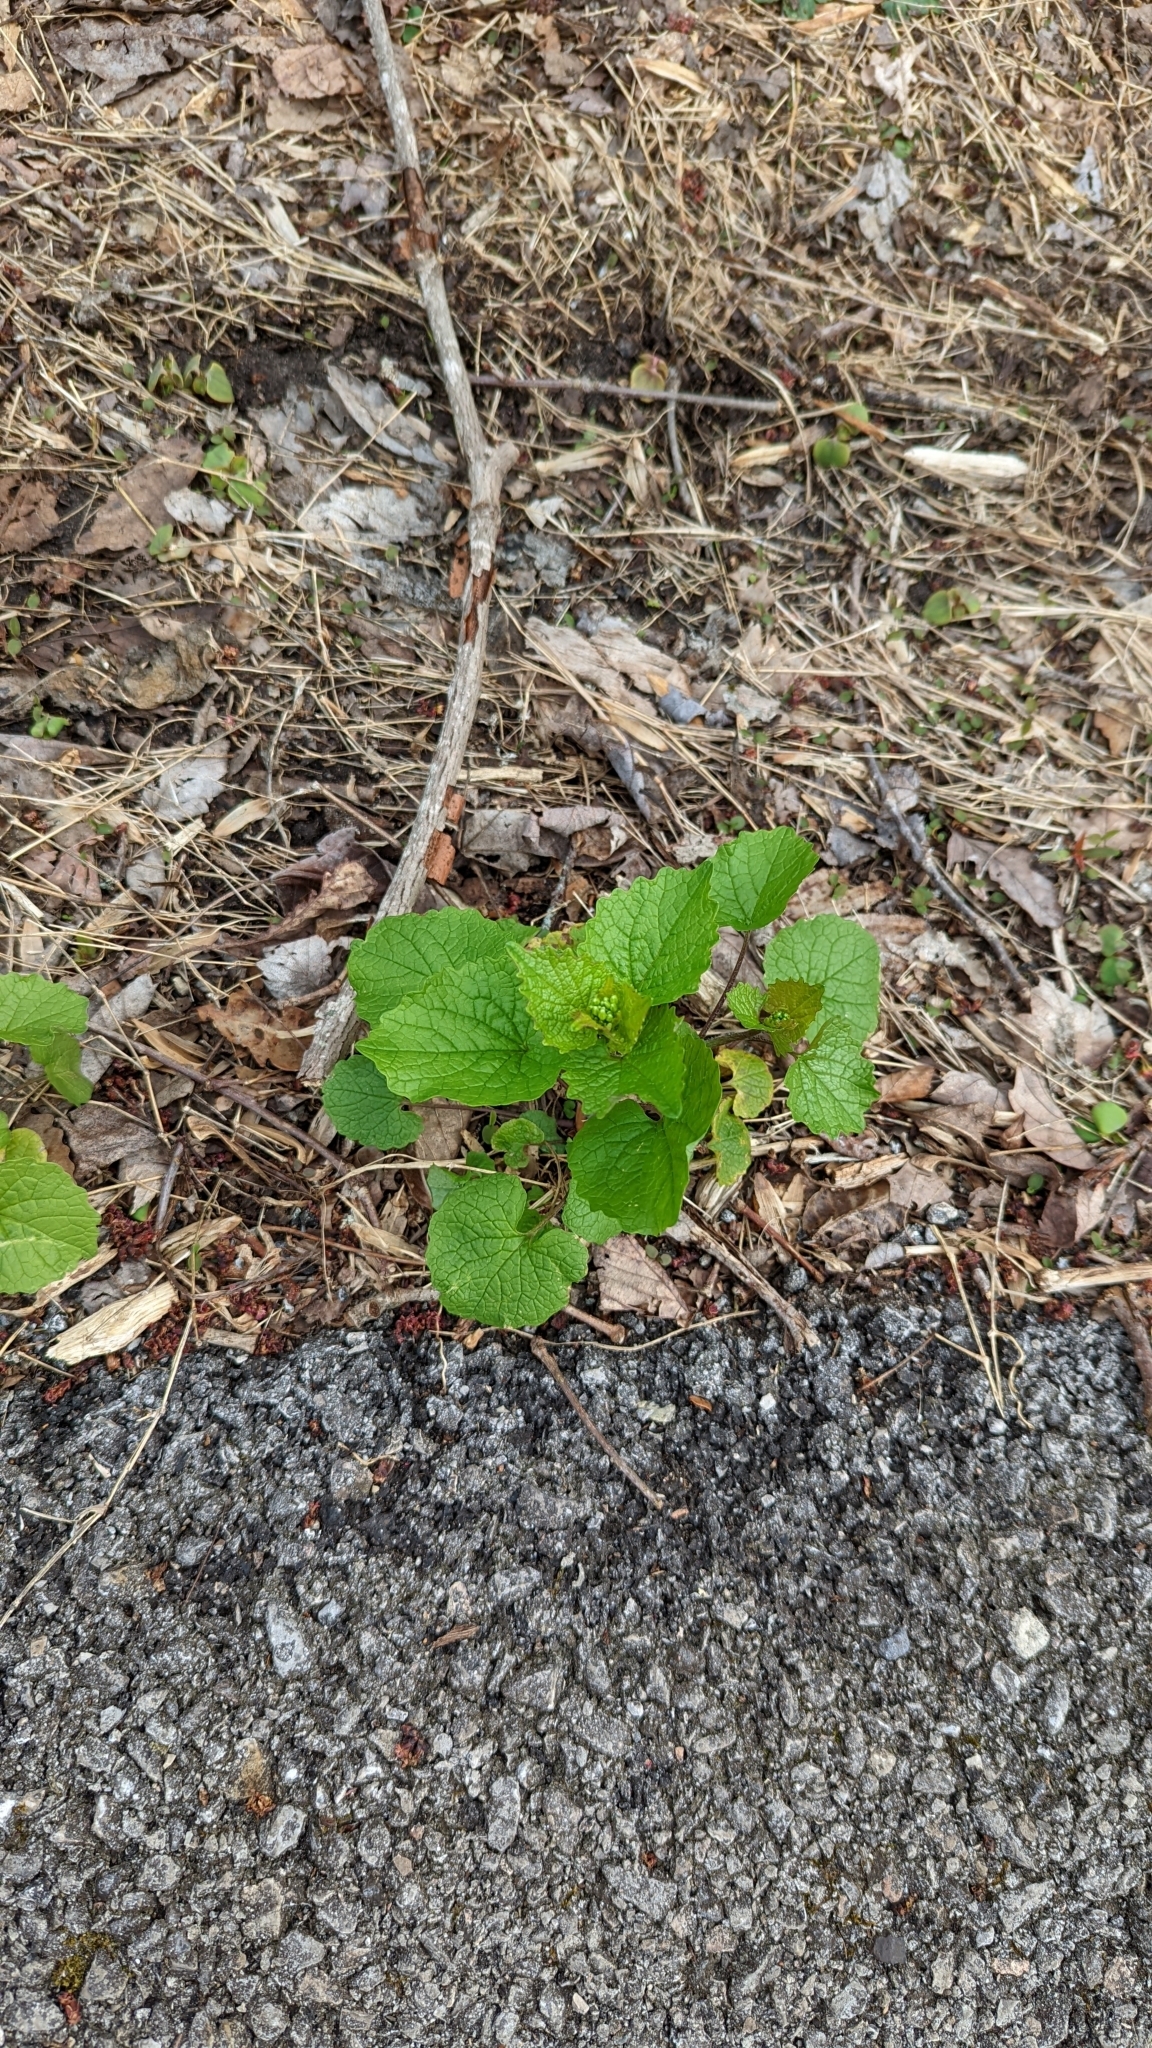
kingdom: Plantae
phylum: Tracheophyta
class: Magnoliopsida
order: Brassicales
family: Brassicaceae
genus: Alliaria
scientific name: Alliaria petiolata
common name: Garlic mustard
